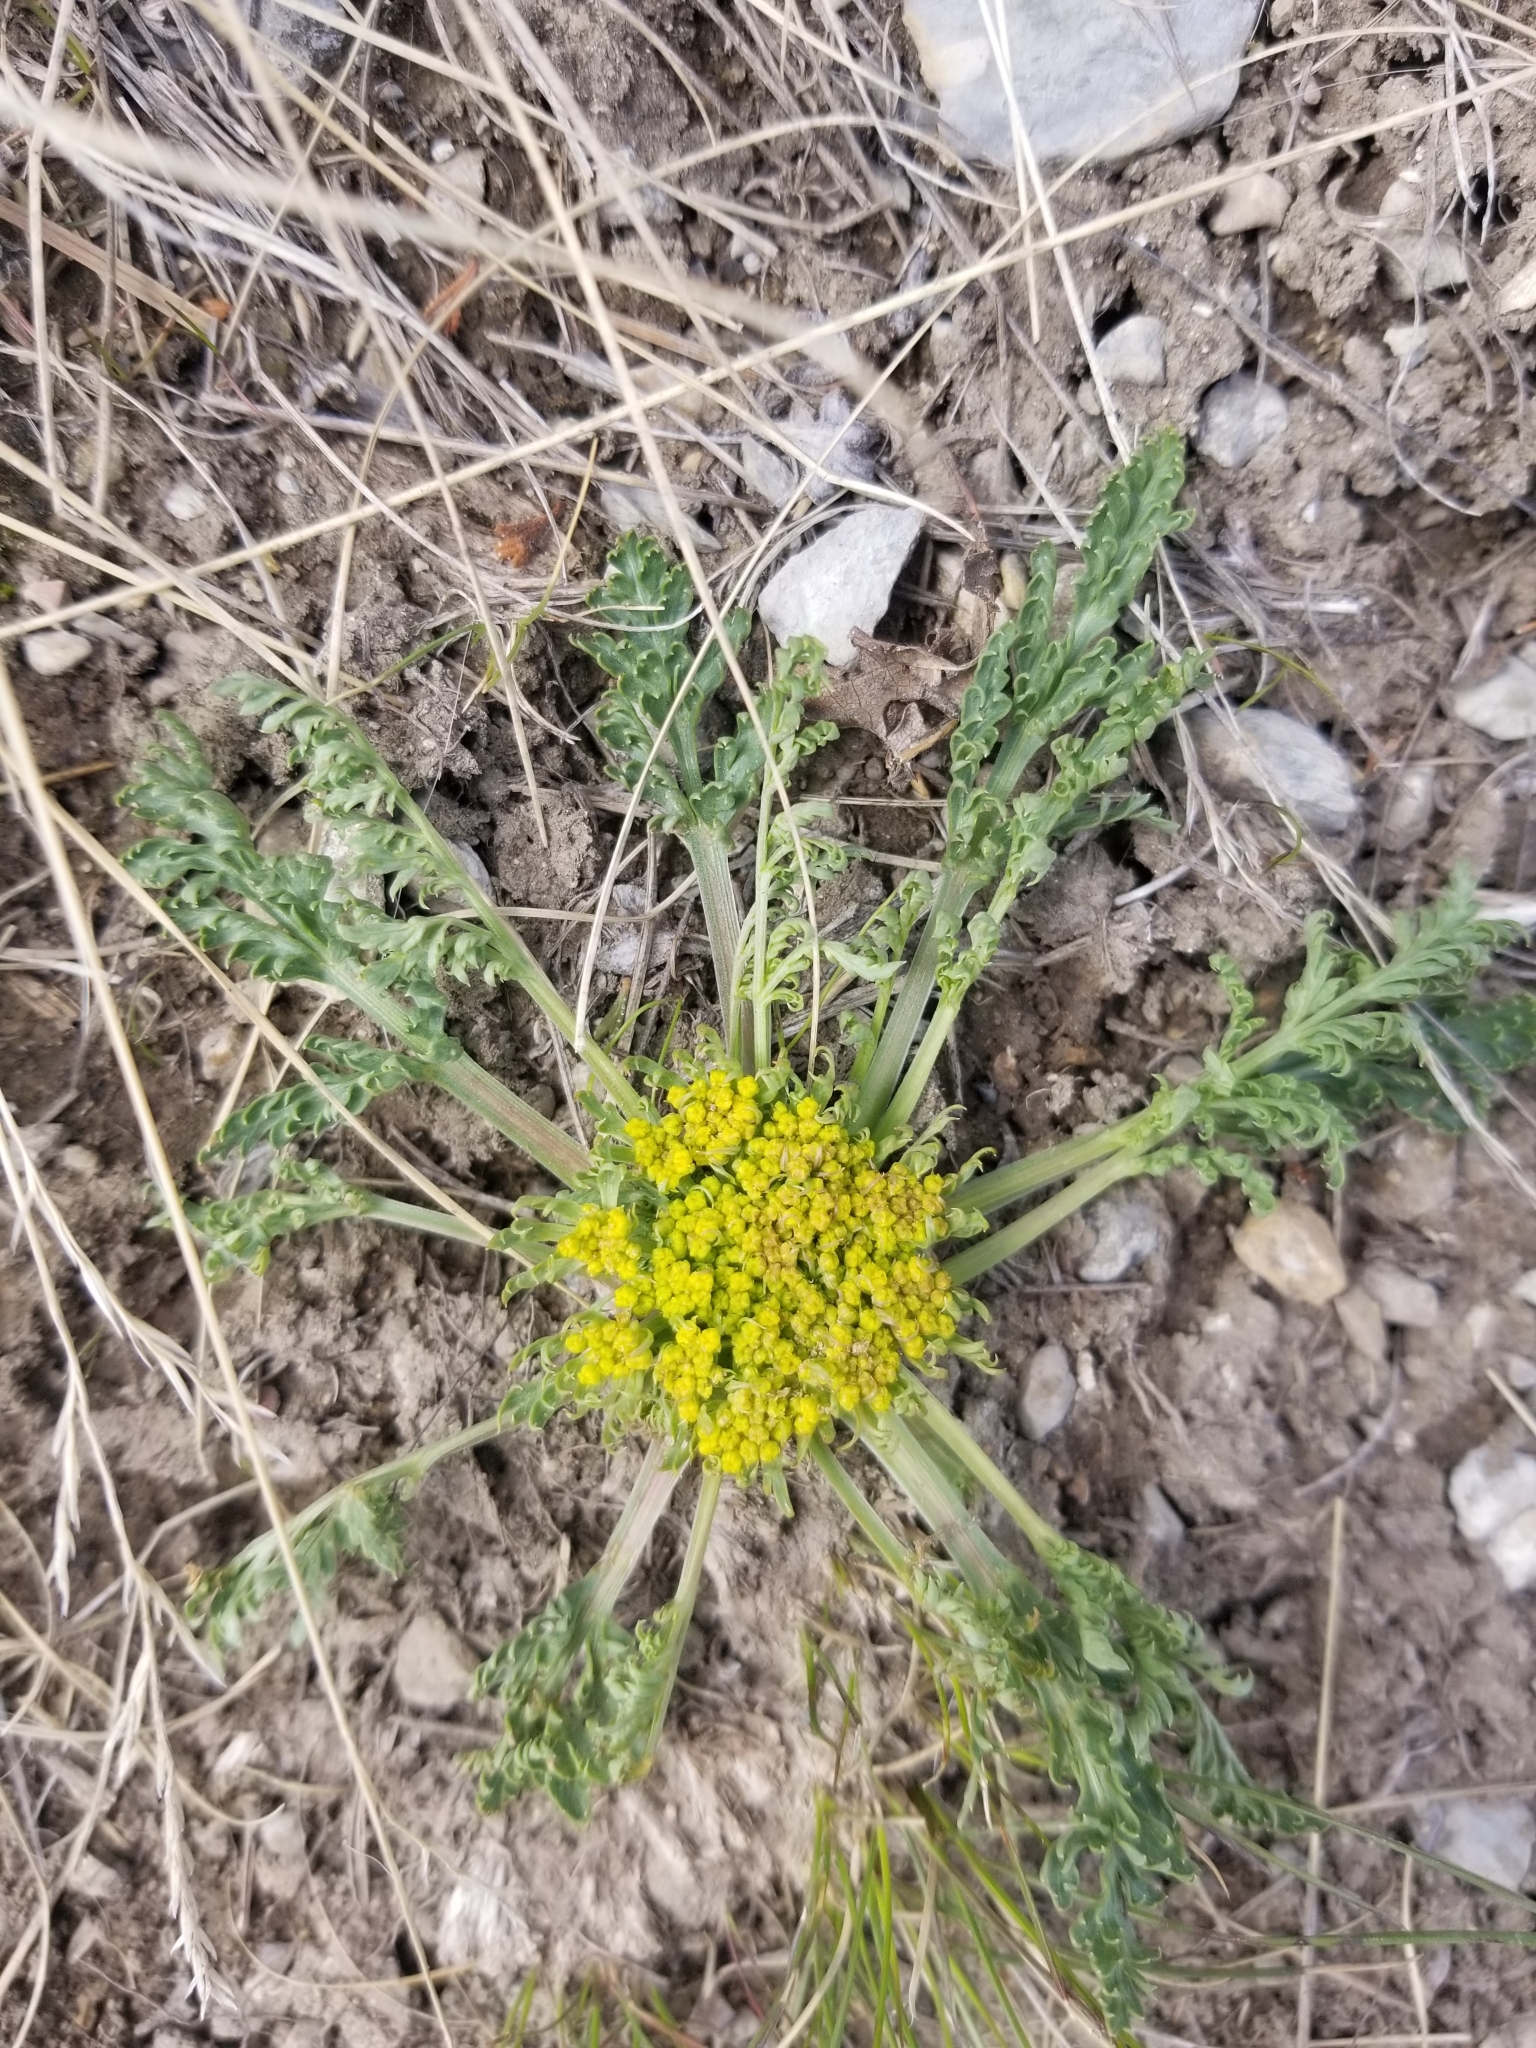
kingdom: Plantae
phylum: Tracheophyta
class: Magnoliopsida
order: Apiales
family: Apiaceae
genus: Musineon
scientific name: Musineon divaricatum
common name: Plains musineon
